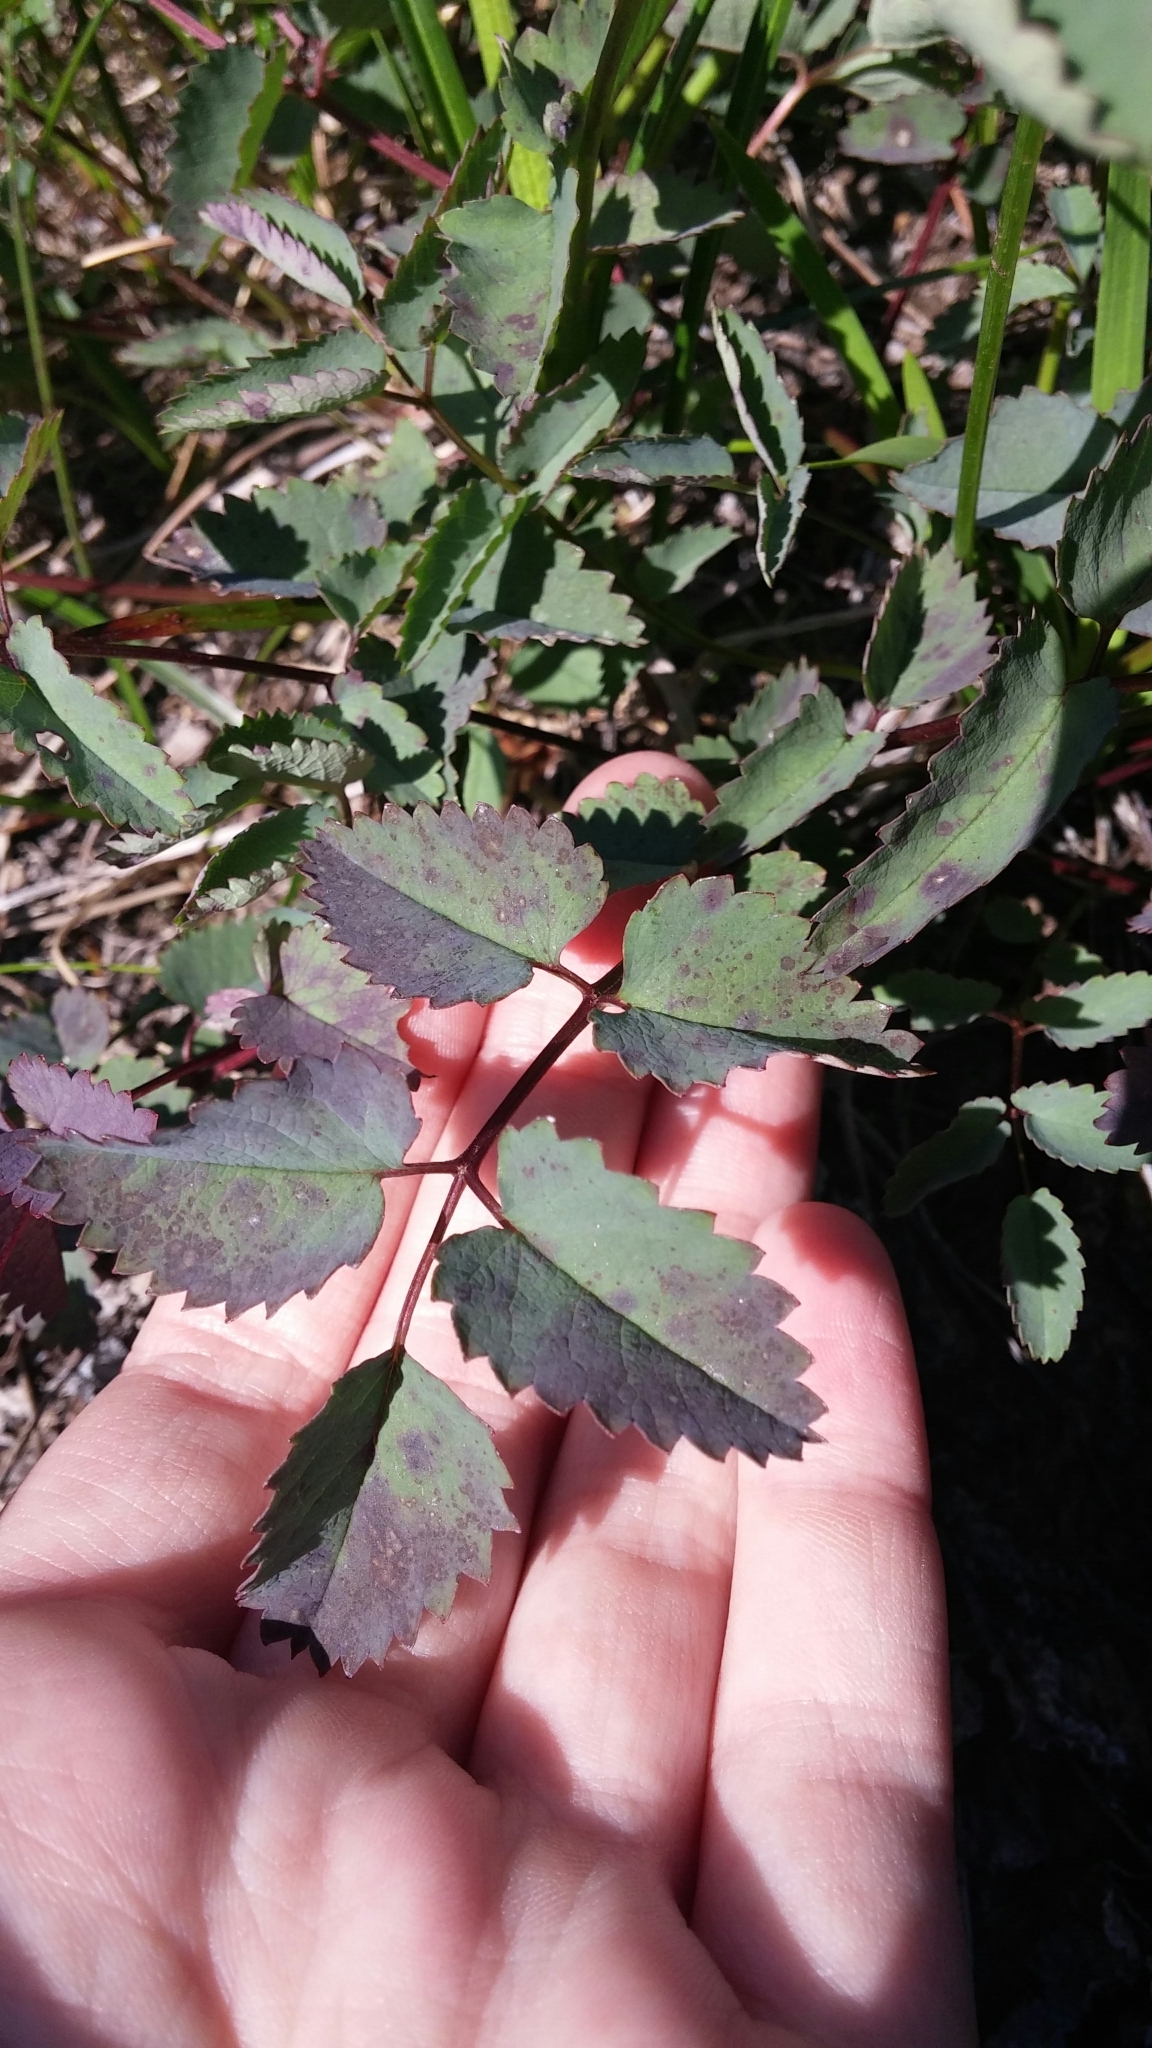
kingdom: Plantae
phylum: Tracheophyta
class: Magnoliopsida
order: Rosales
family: Rosaceae
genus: Sanguisorba
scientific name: Sanguisorba officinalis
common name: Great burnet
